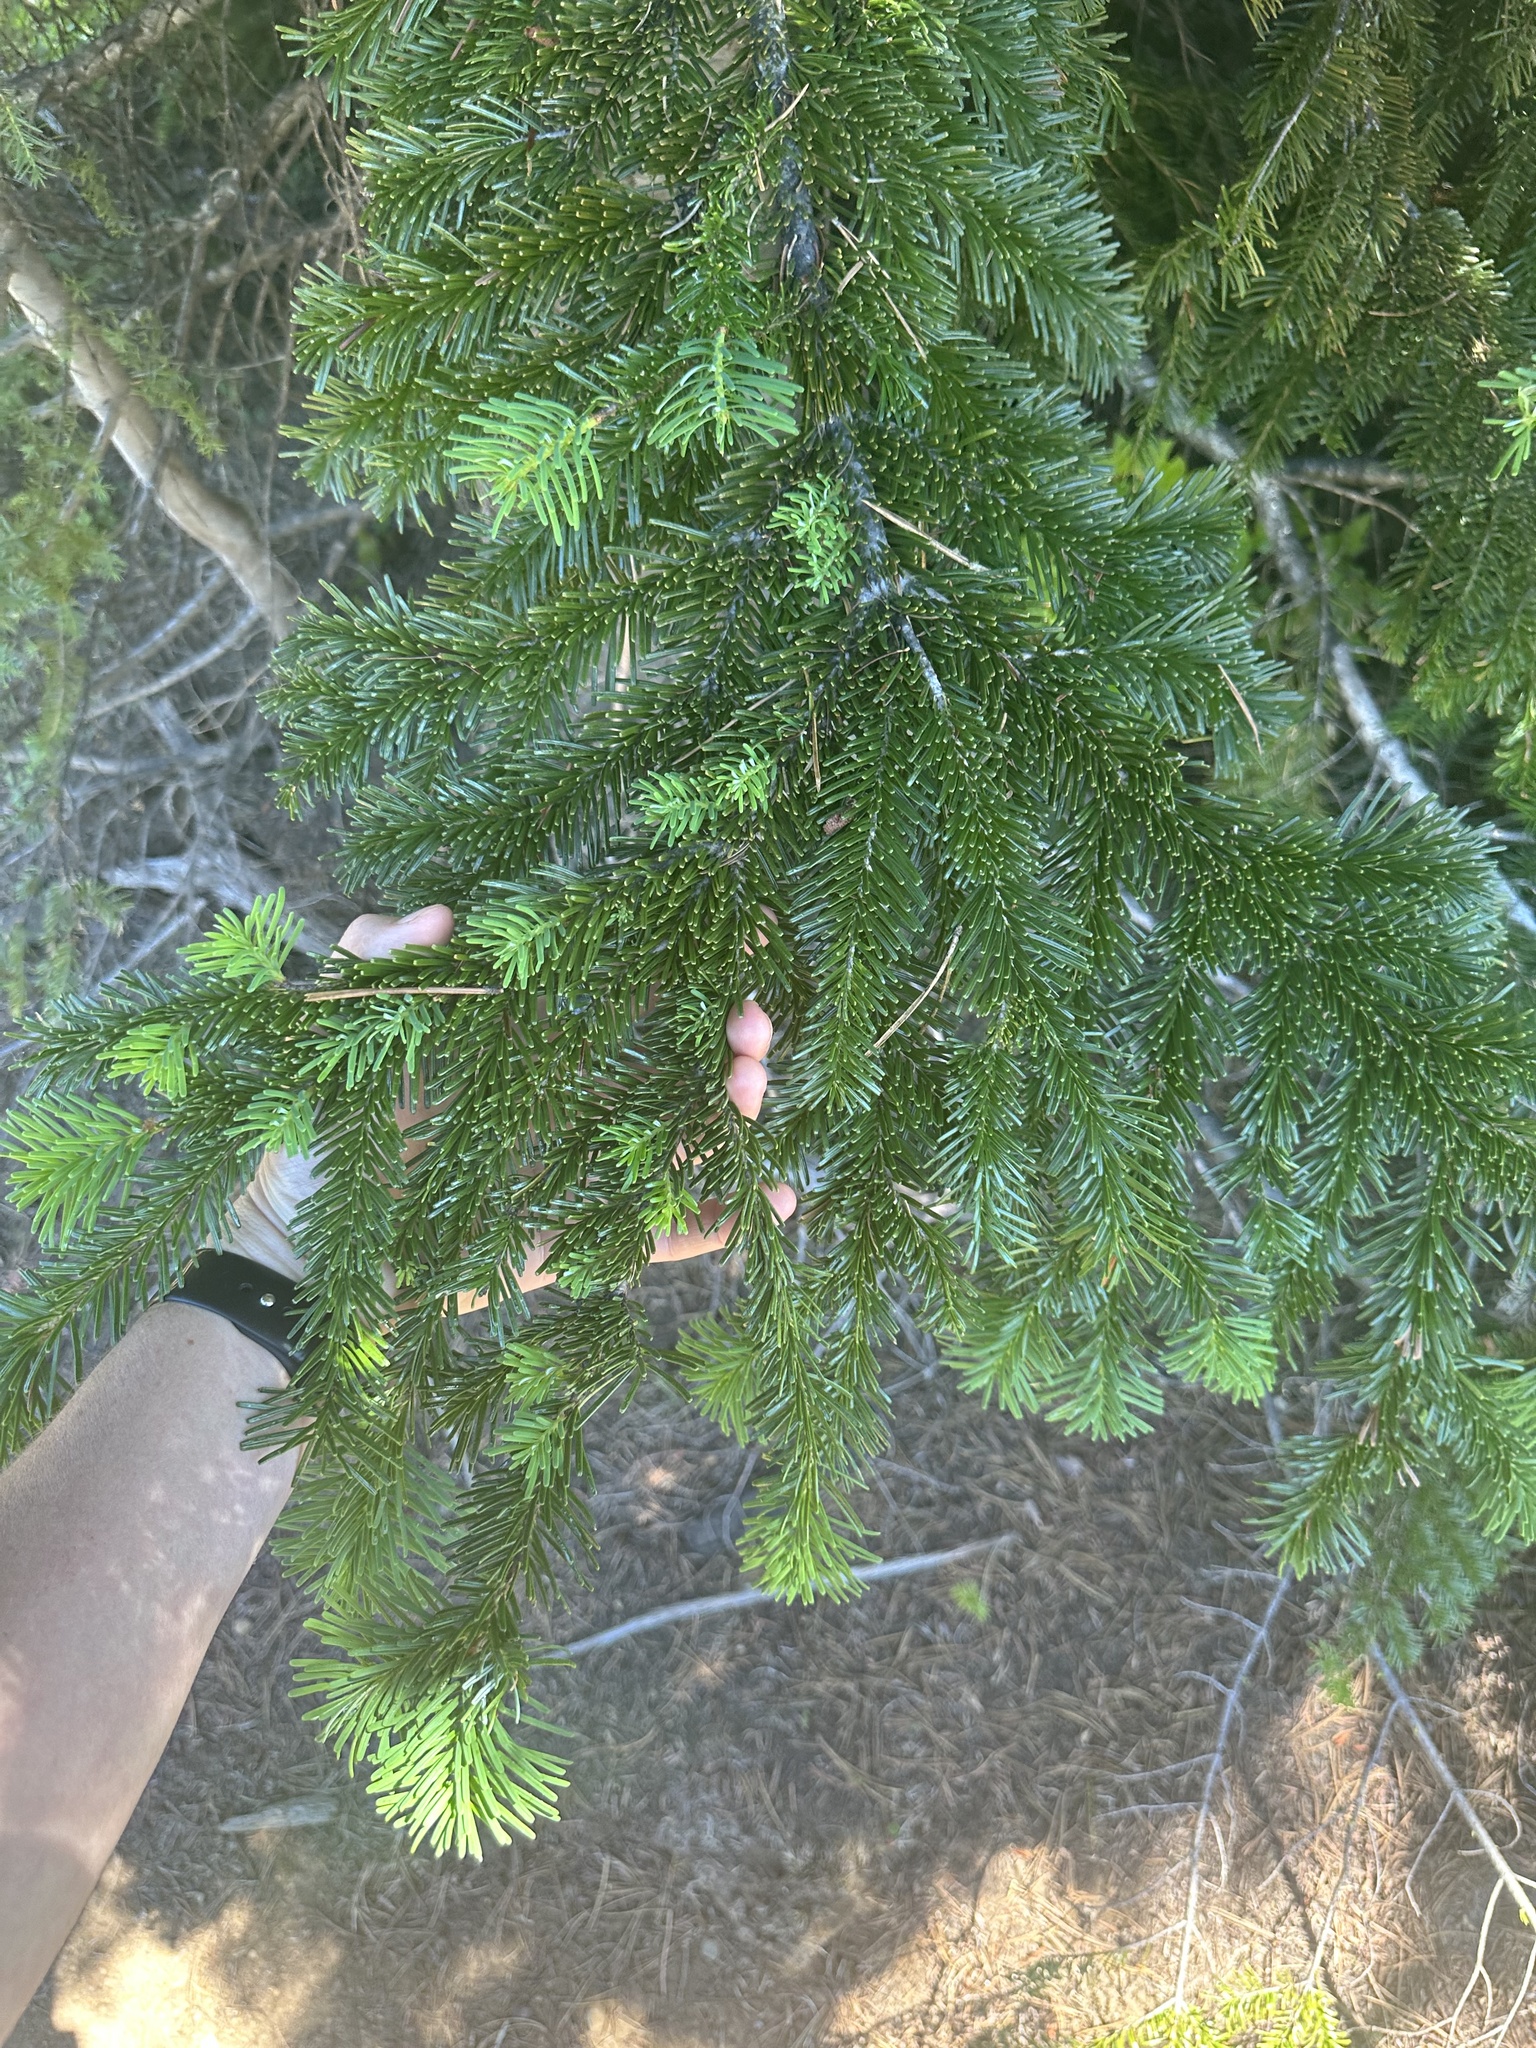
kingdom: Plantae
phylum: Tracheophyta
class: Pinopsida
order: Pinales
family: Pinaceae
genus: Abies
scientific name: Abies amabilis
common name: Pacific silver fir
